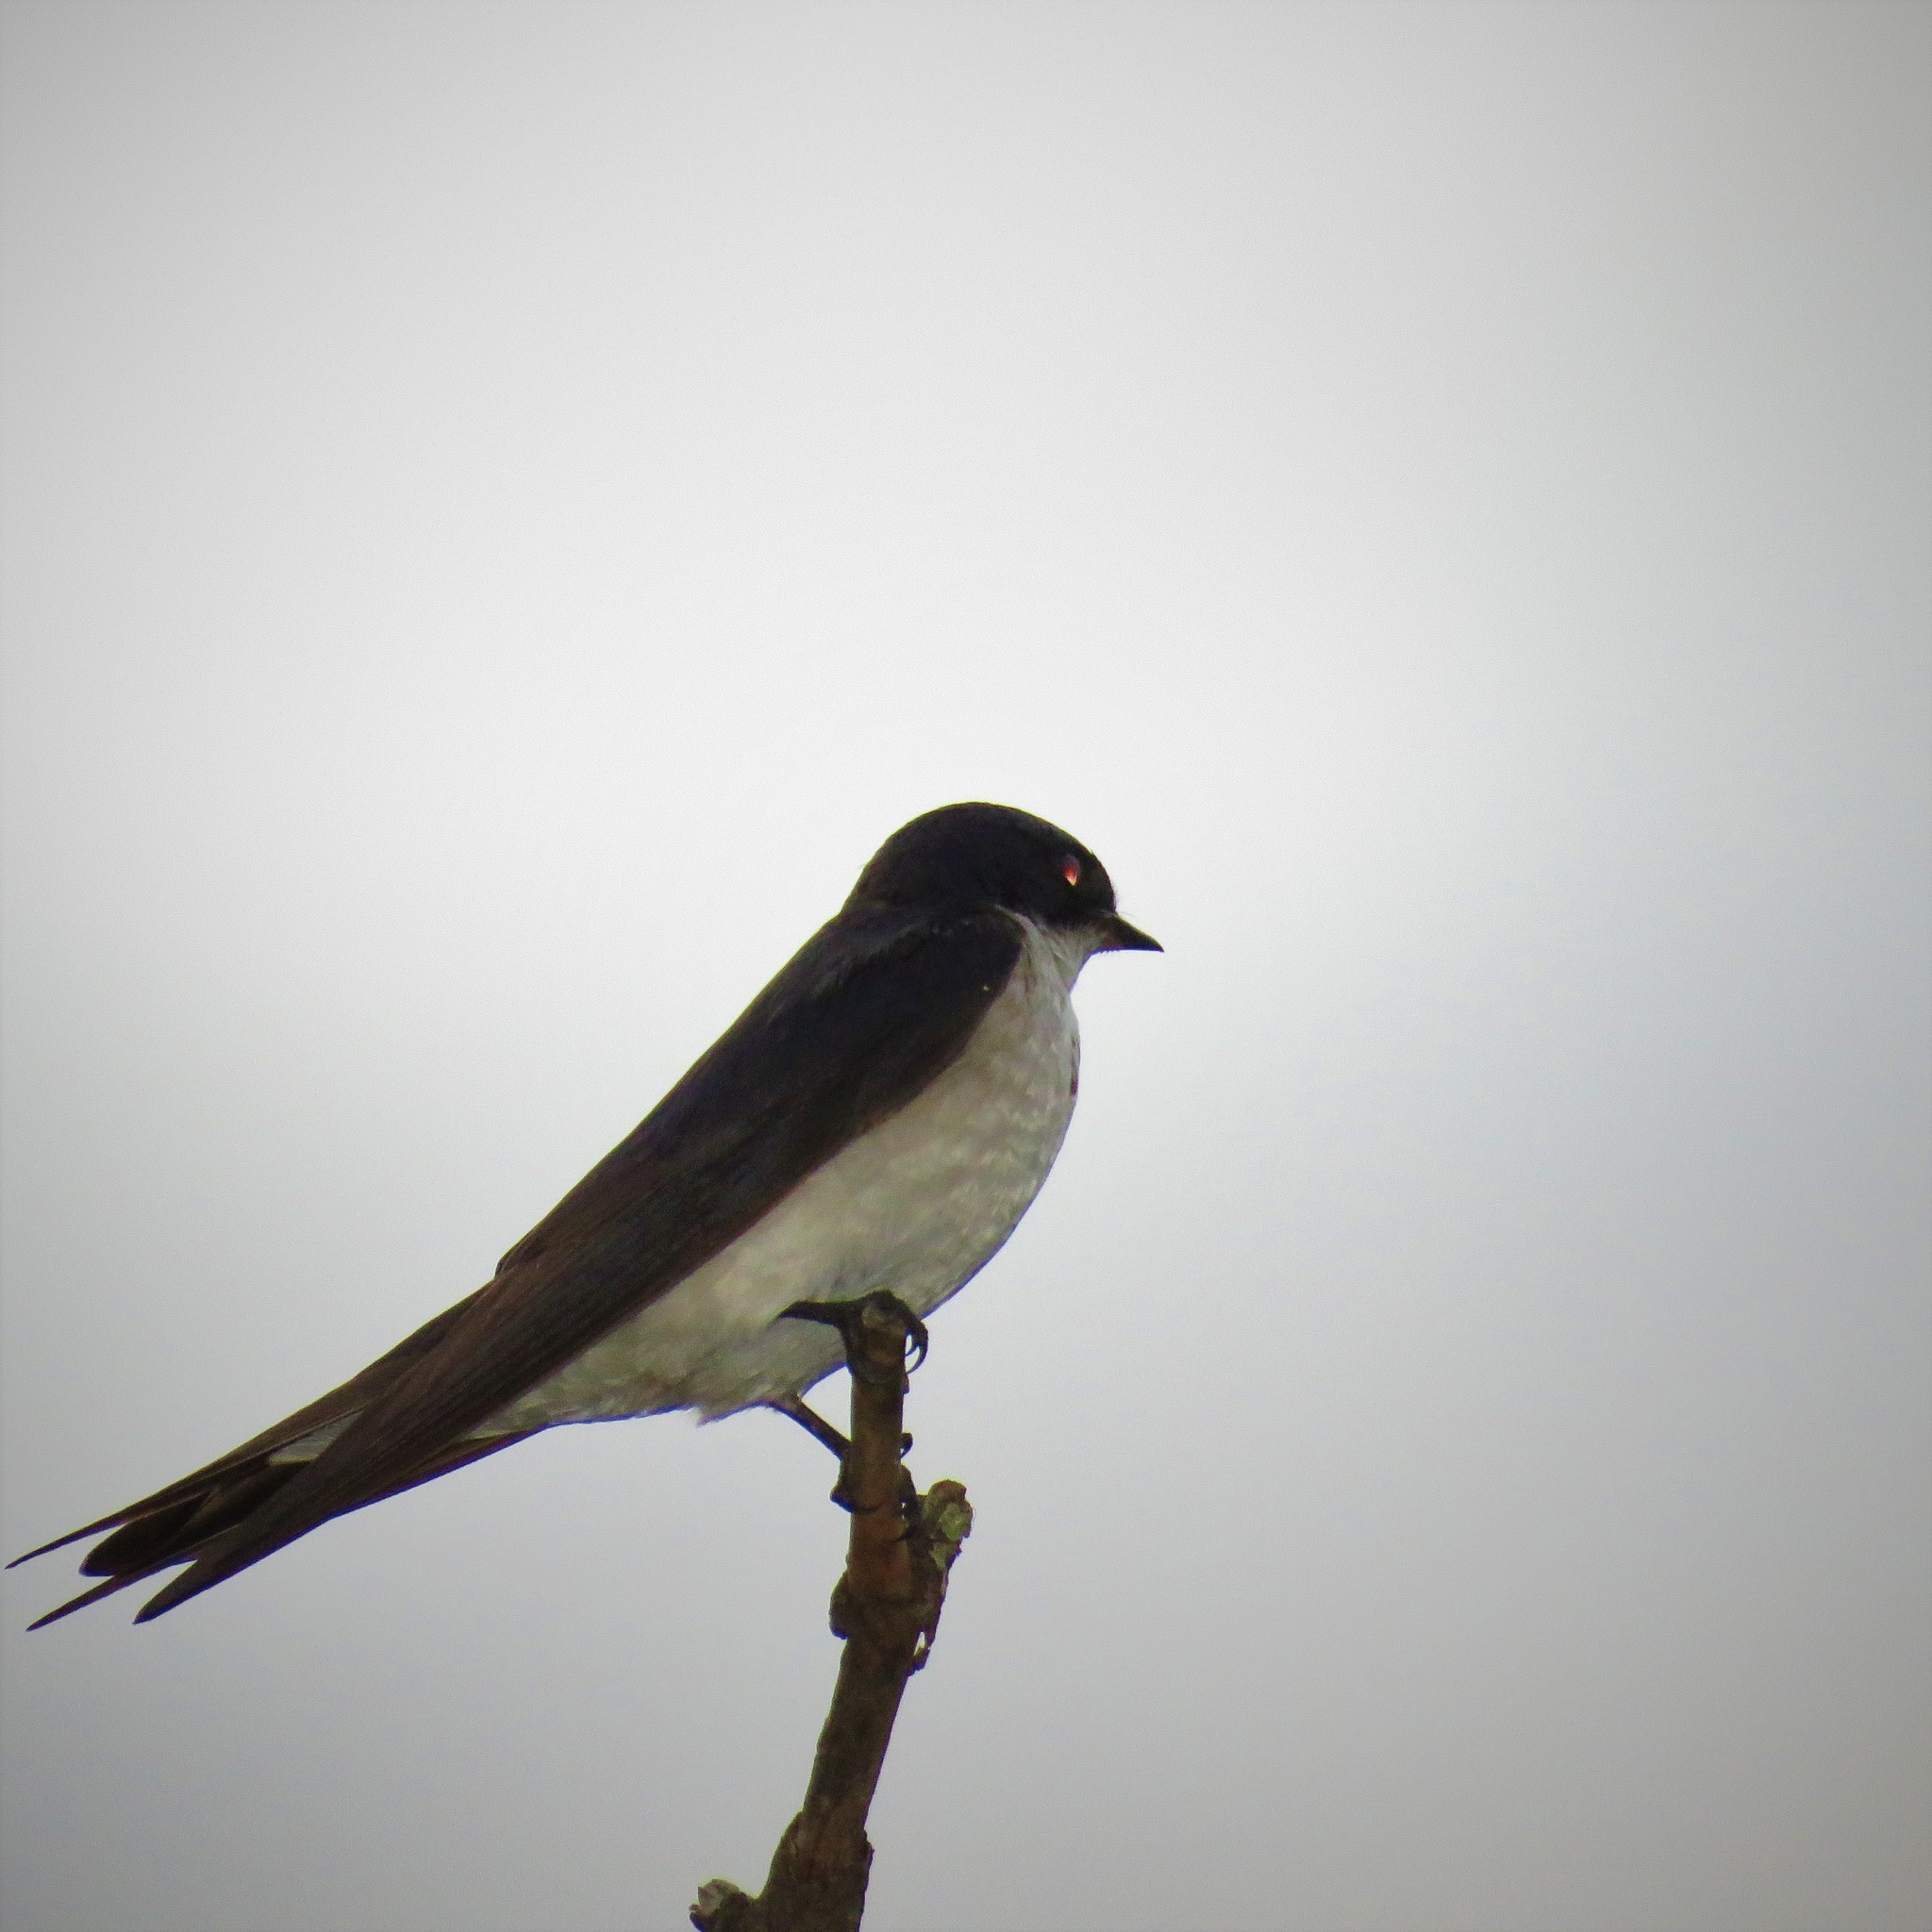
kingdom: Animalia
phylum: Chordata
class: Aves
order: Passeriformes
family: Hirundinidae
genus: Hirundo
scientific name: Hirundo dimidiata
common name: Pearl-breasted swallow
